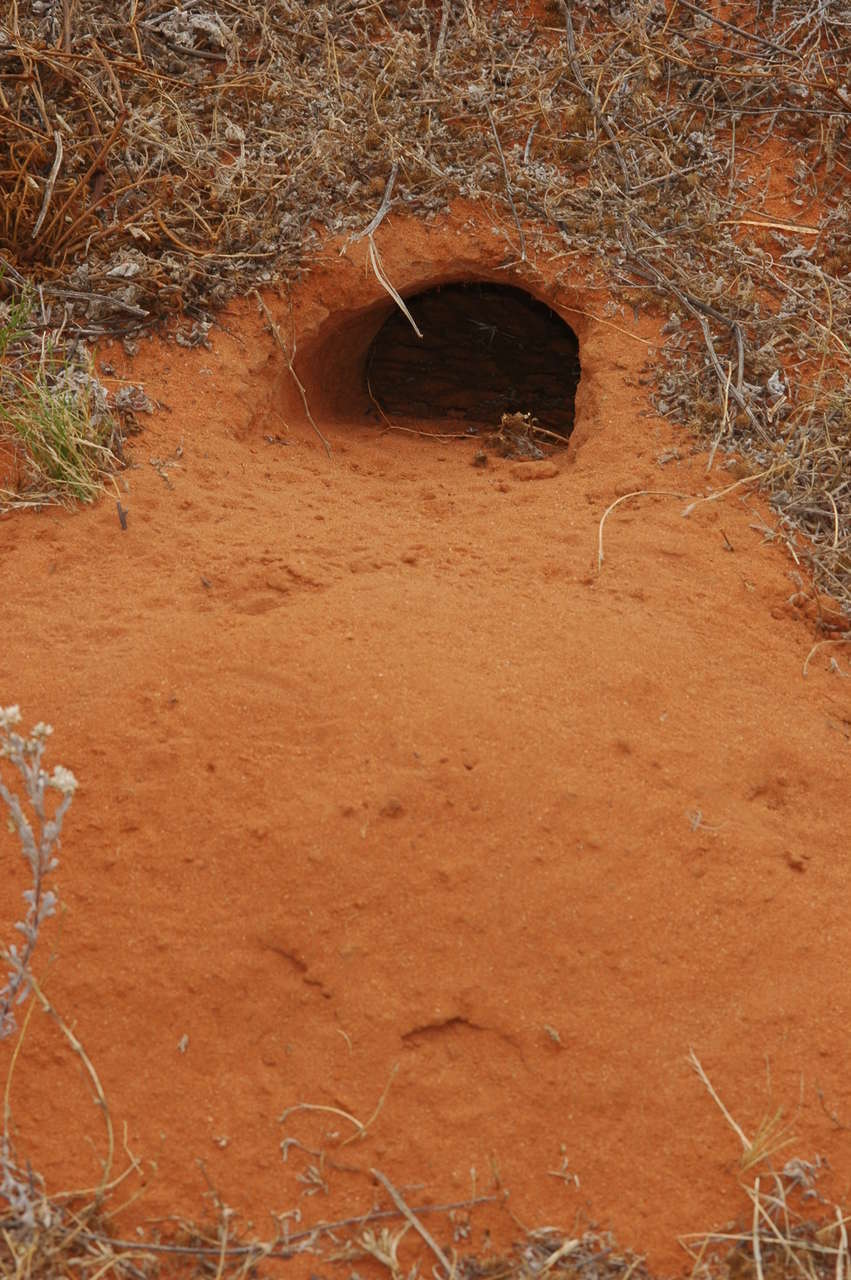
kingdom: Animalia
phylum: Chordata
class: Squamata
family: Varanidae
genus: Varanus
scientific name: Varanus gouldii
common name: Gould's goanna
